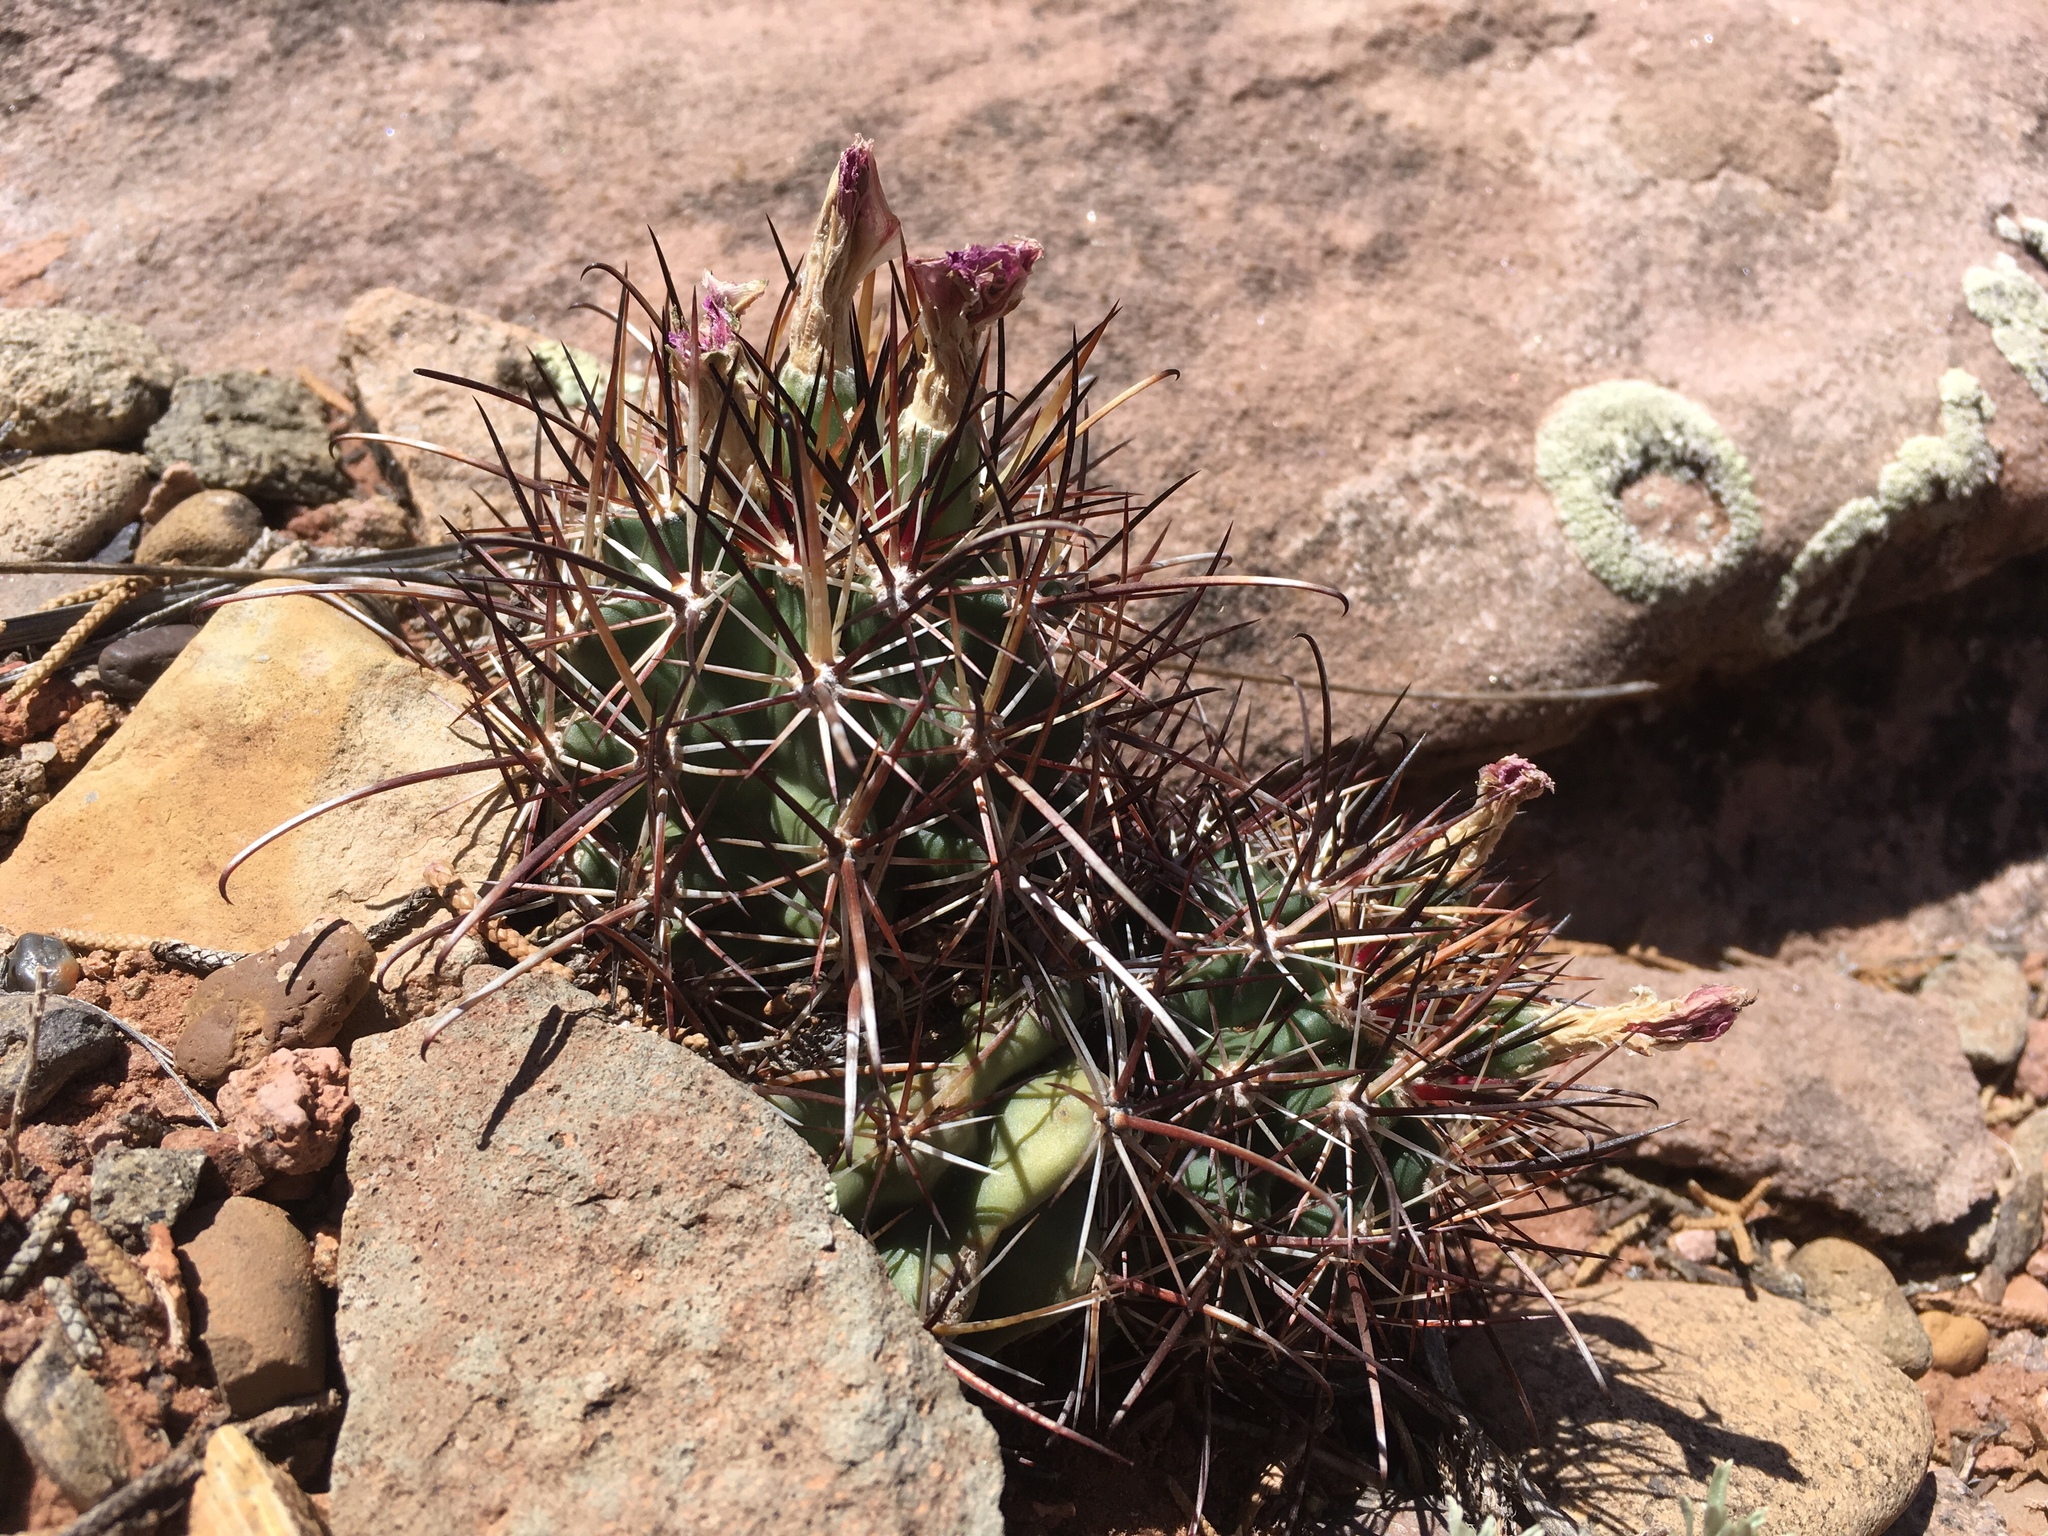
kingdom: Plantae
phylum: Tracheophyta
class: Magnoliopsida
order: Caryophyllales
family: Cactaceae
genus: Sclerocactus
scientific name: Sclerocactus parviflorus
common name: Small-flower fishhook cactus
